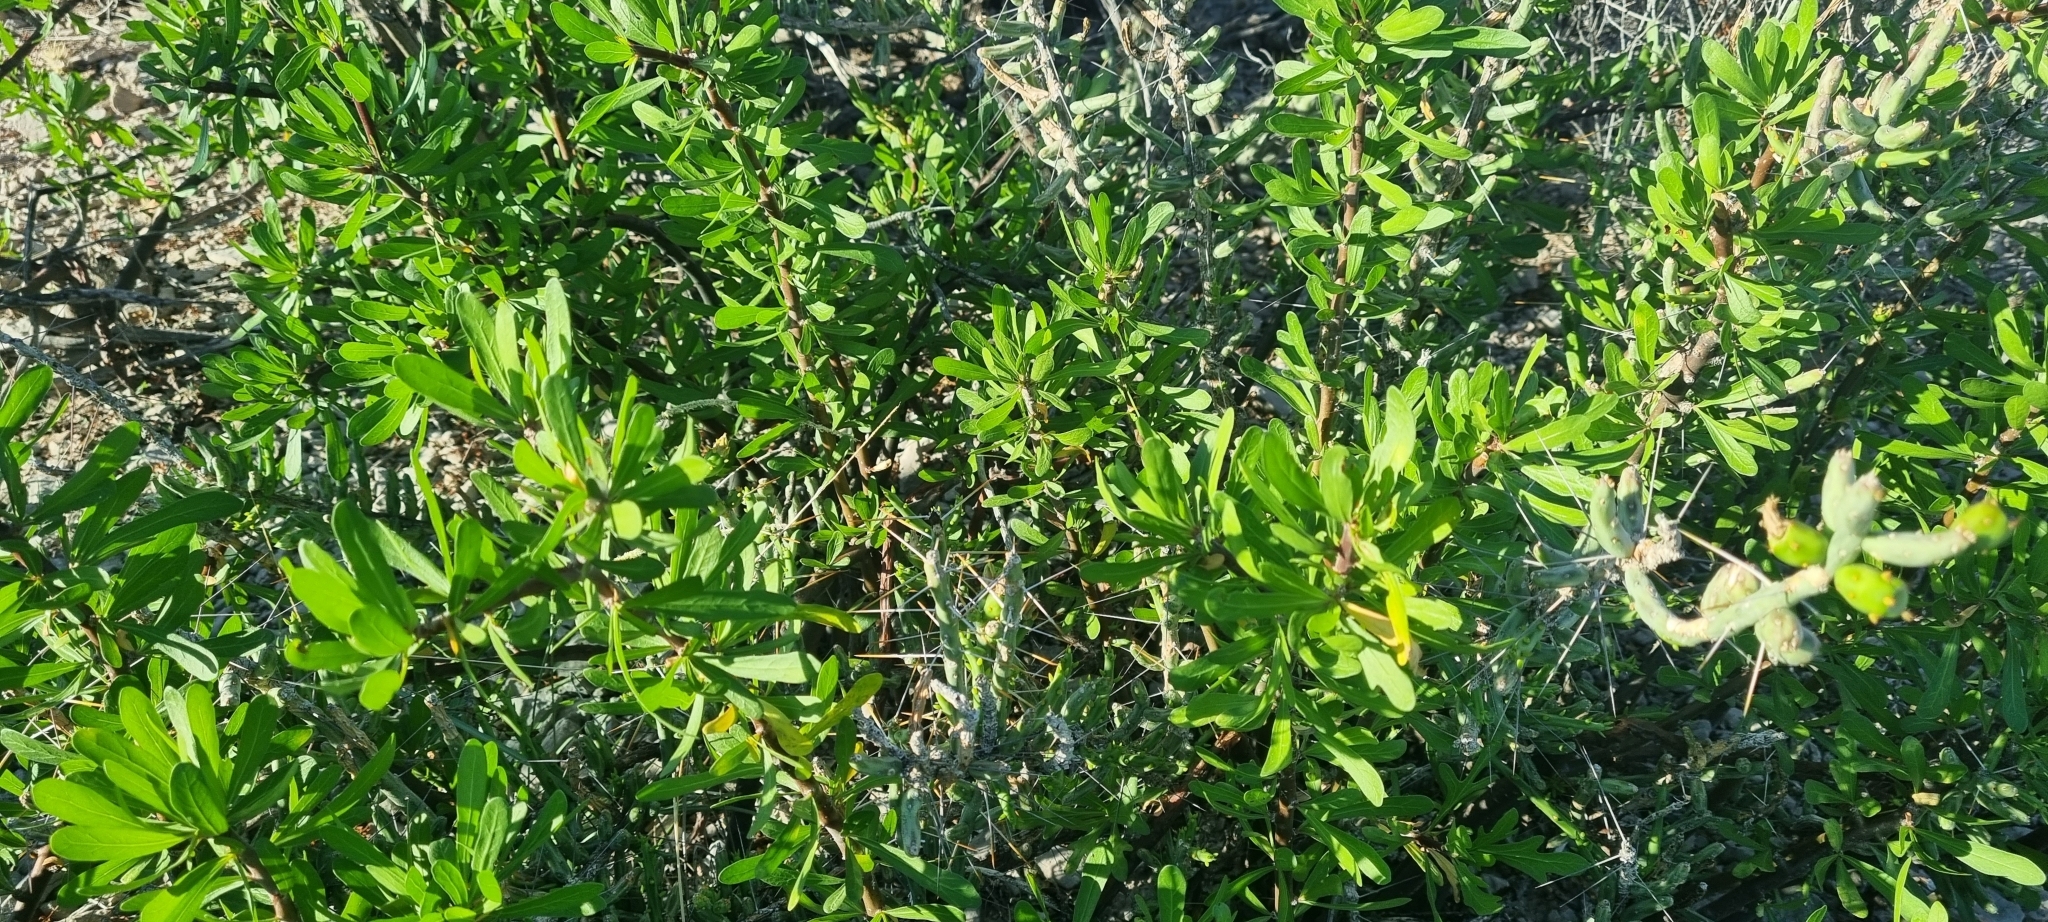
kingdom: Plantae
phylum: Tracheophyta
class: Magnoliopsida
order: Malpighiales
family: Euphorbiaceae
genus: Jatropha
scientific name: Jatropha dioica
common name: Leatherstem
